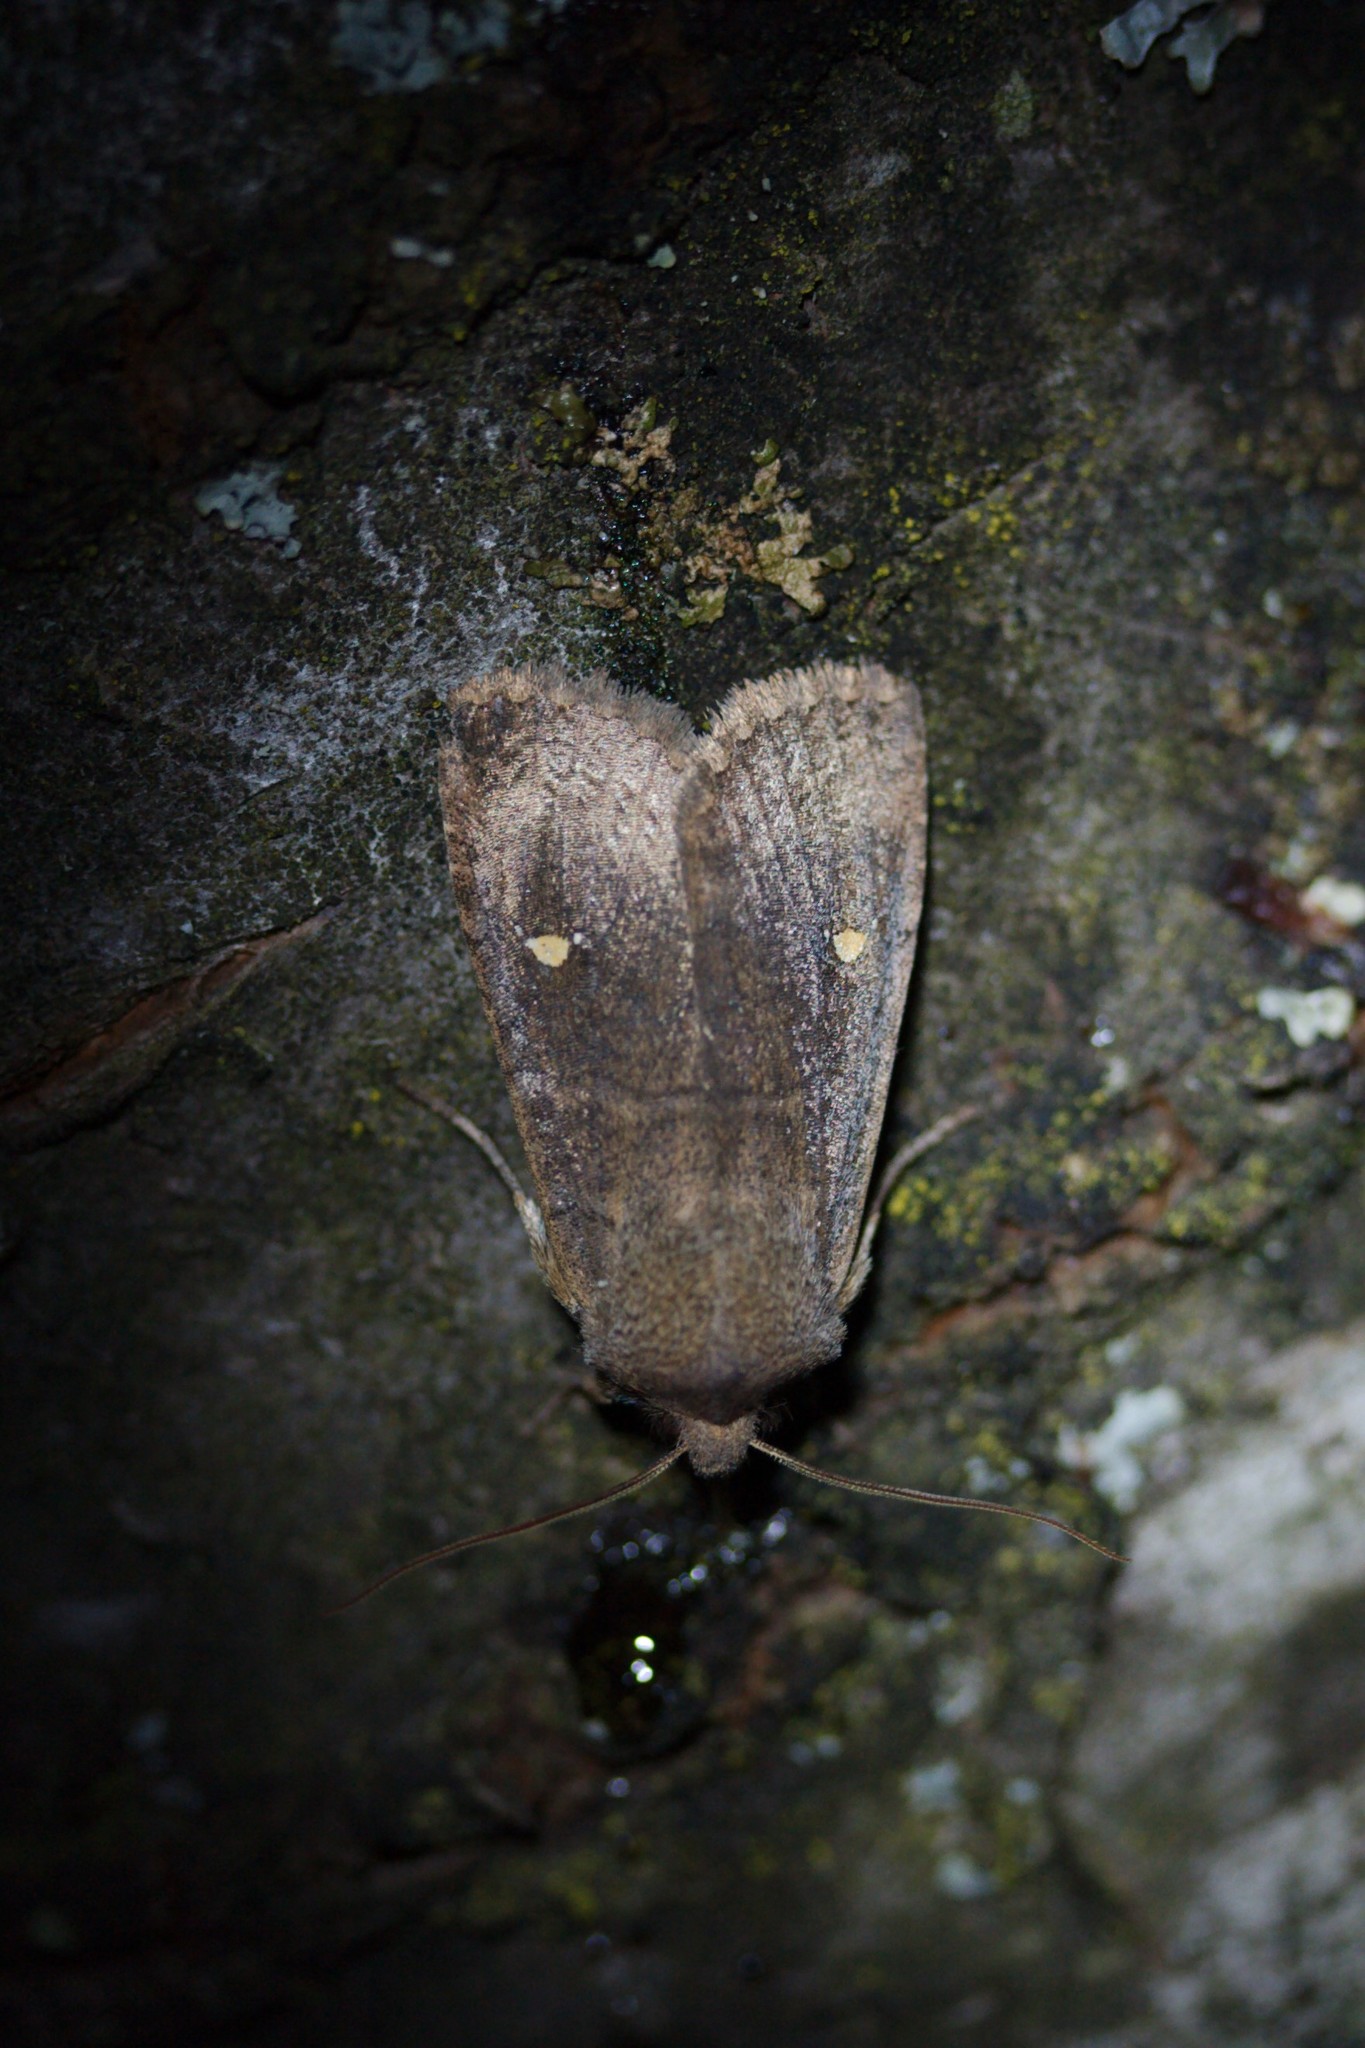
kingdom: Animalia
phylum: Arthropoda
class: Insecta
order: Lepidoptera
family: Noctuidae
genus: Eupsilia
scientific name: Eupsilia transversa
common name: Satellite
